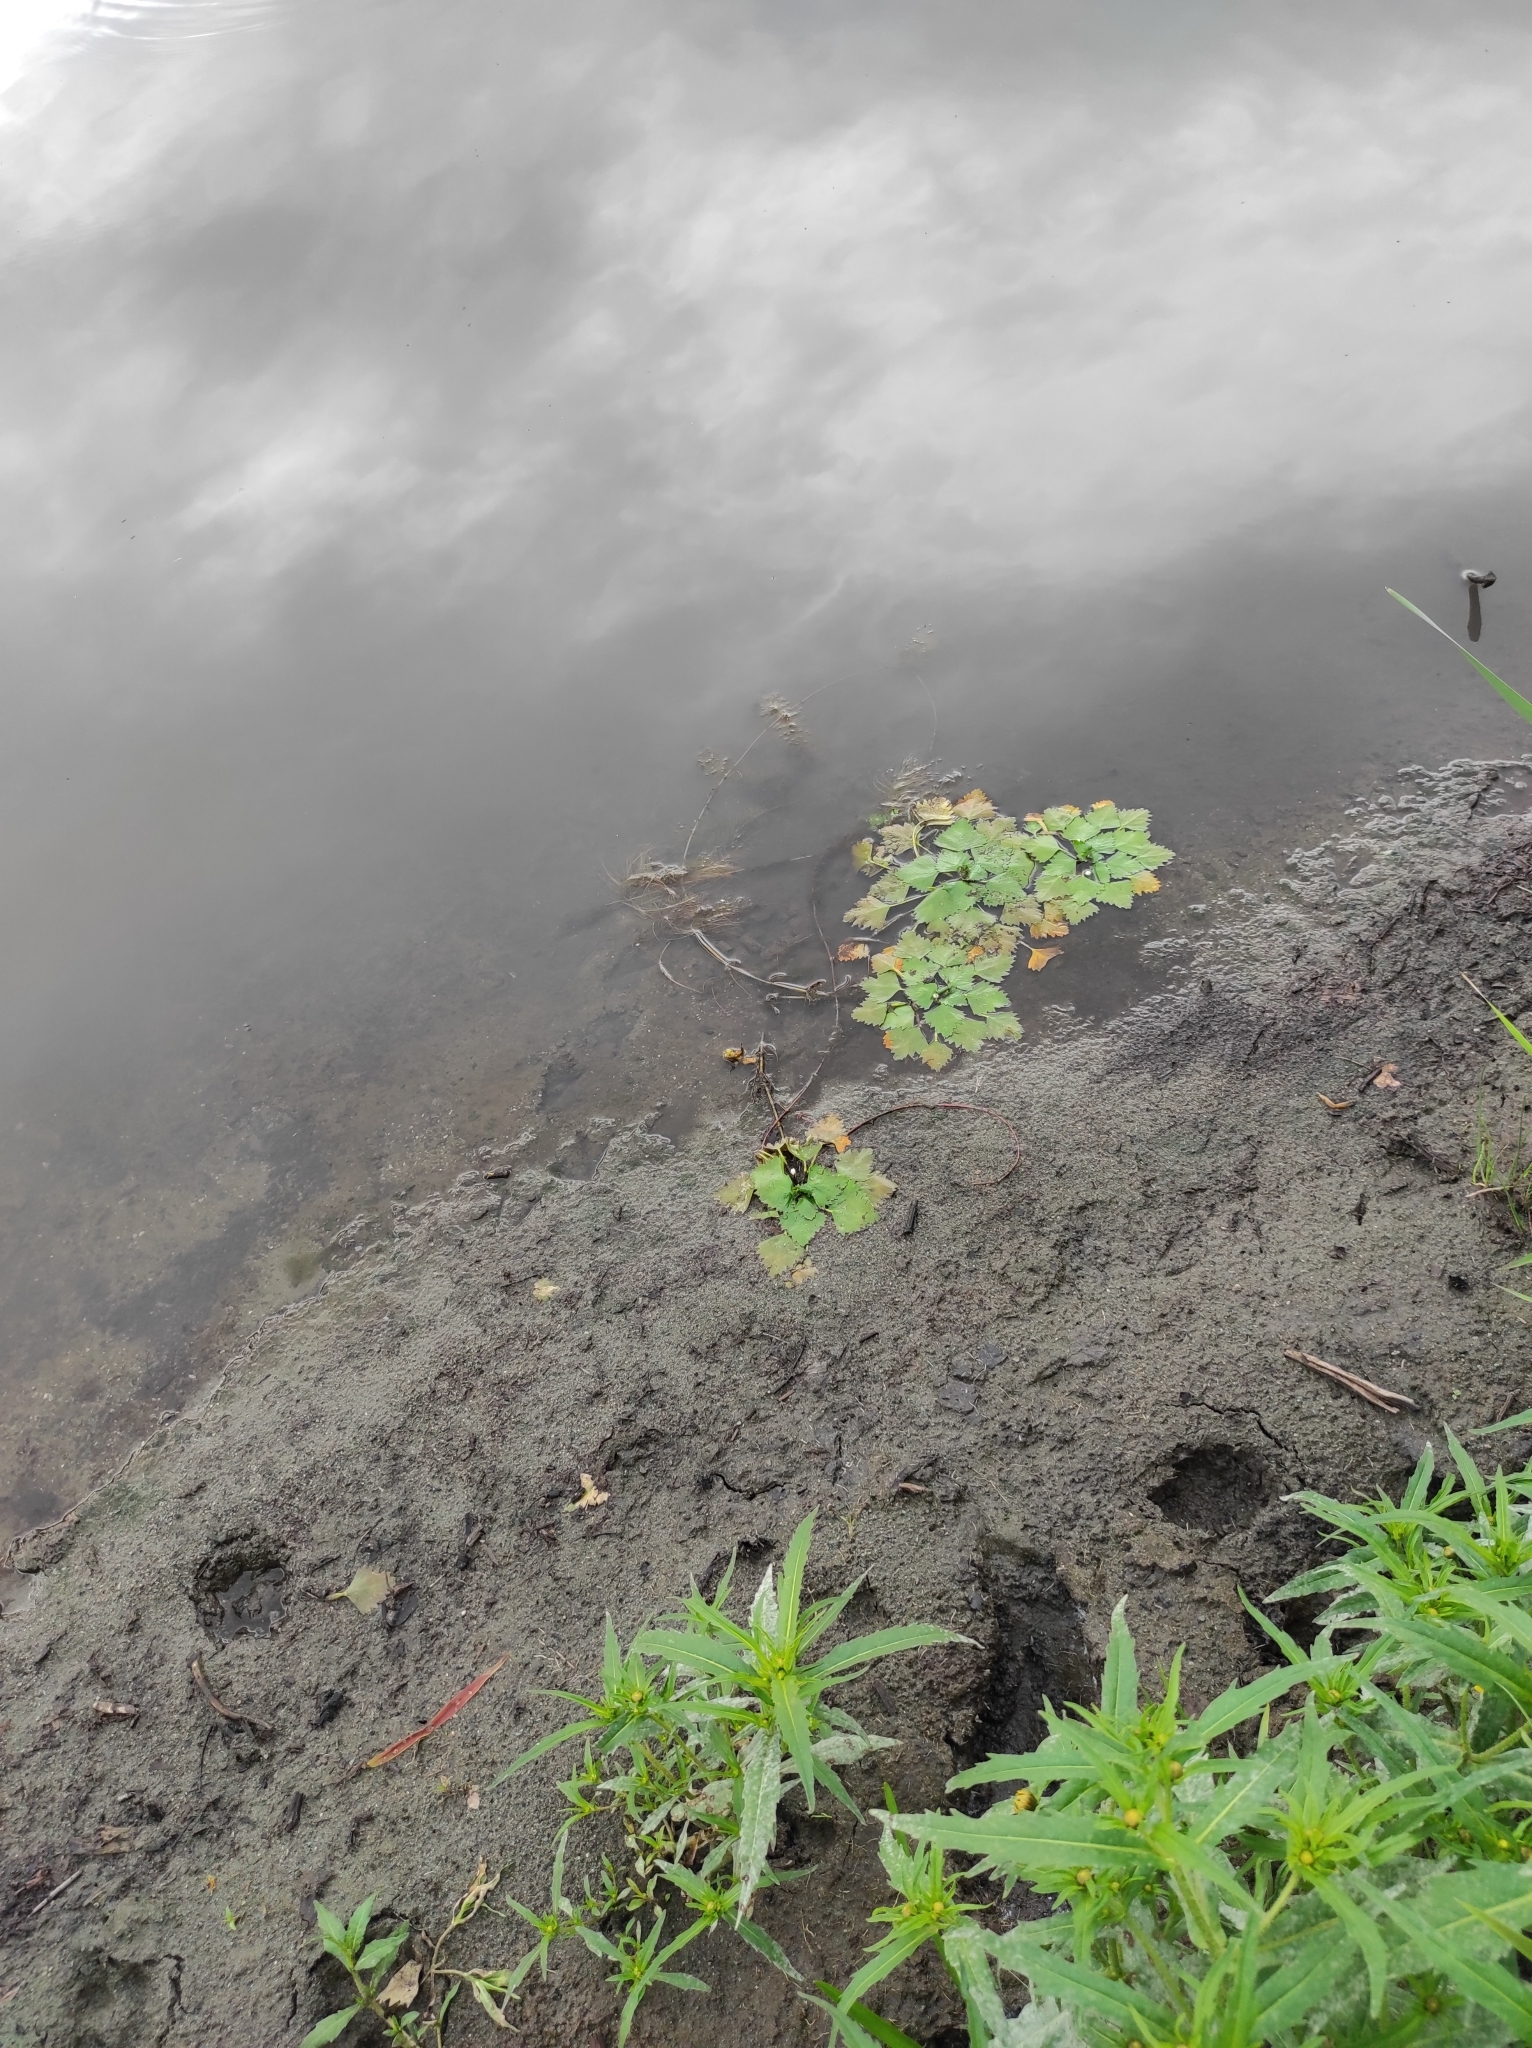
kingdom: Plantae
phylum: Tracheophyta
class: Magnoliopsida
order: Myrtales
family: Lythraceae
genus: Trapa
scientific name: Trapa natans
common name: Water chestnut
